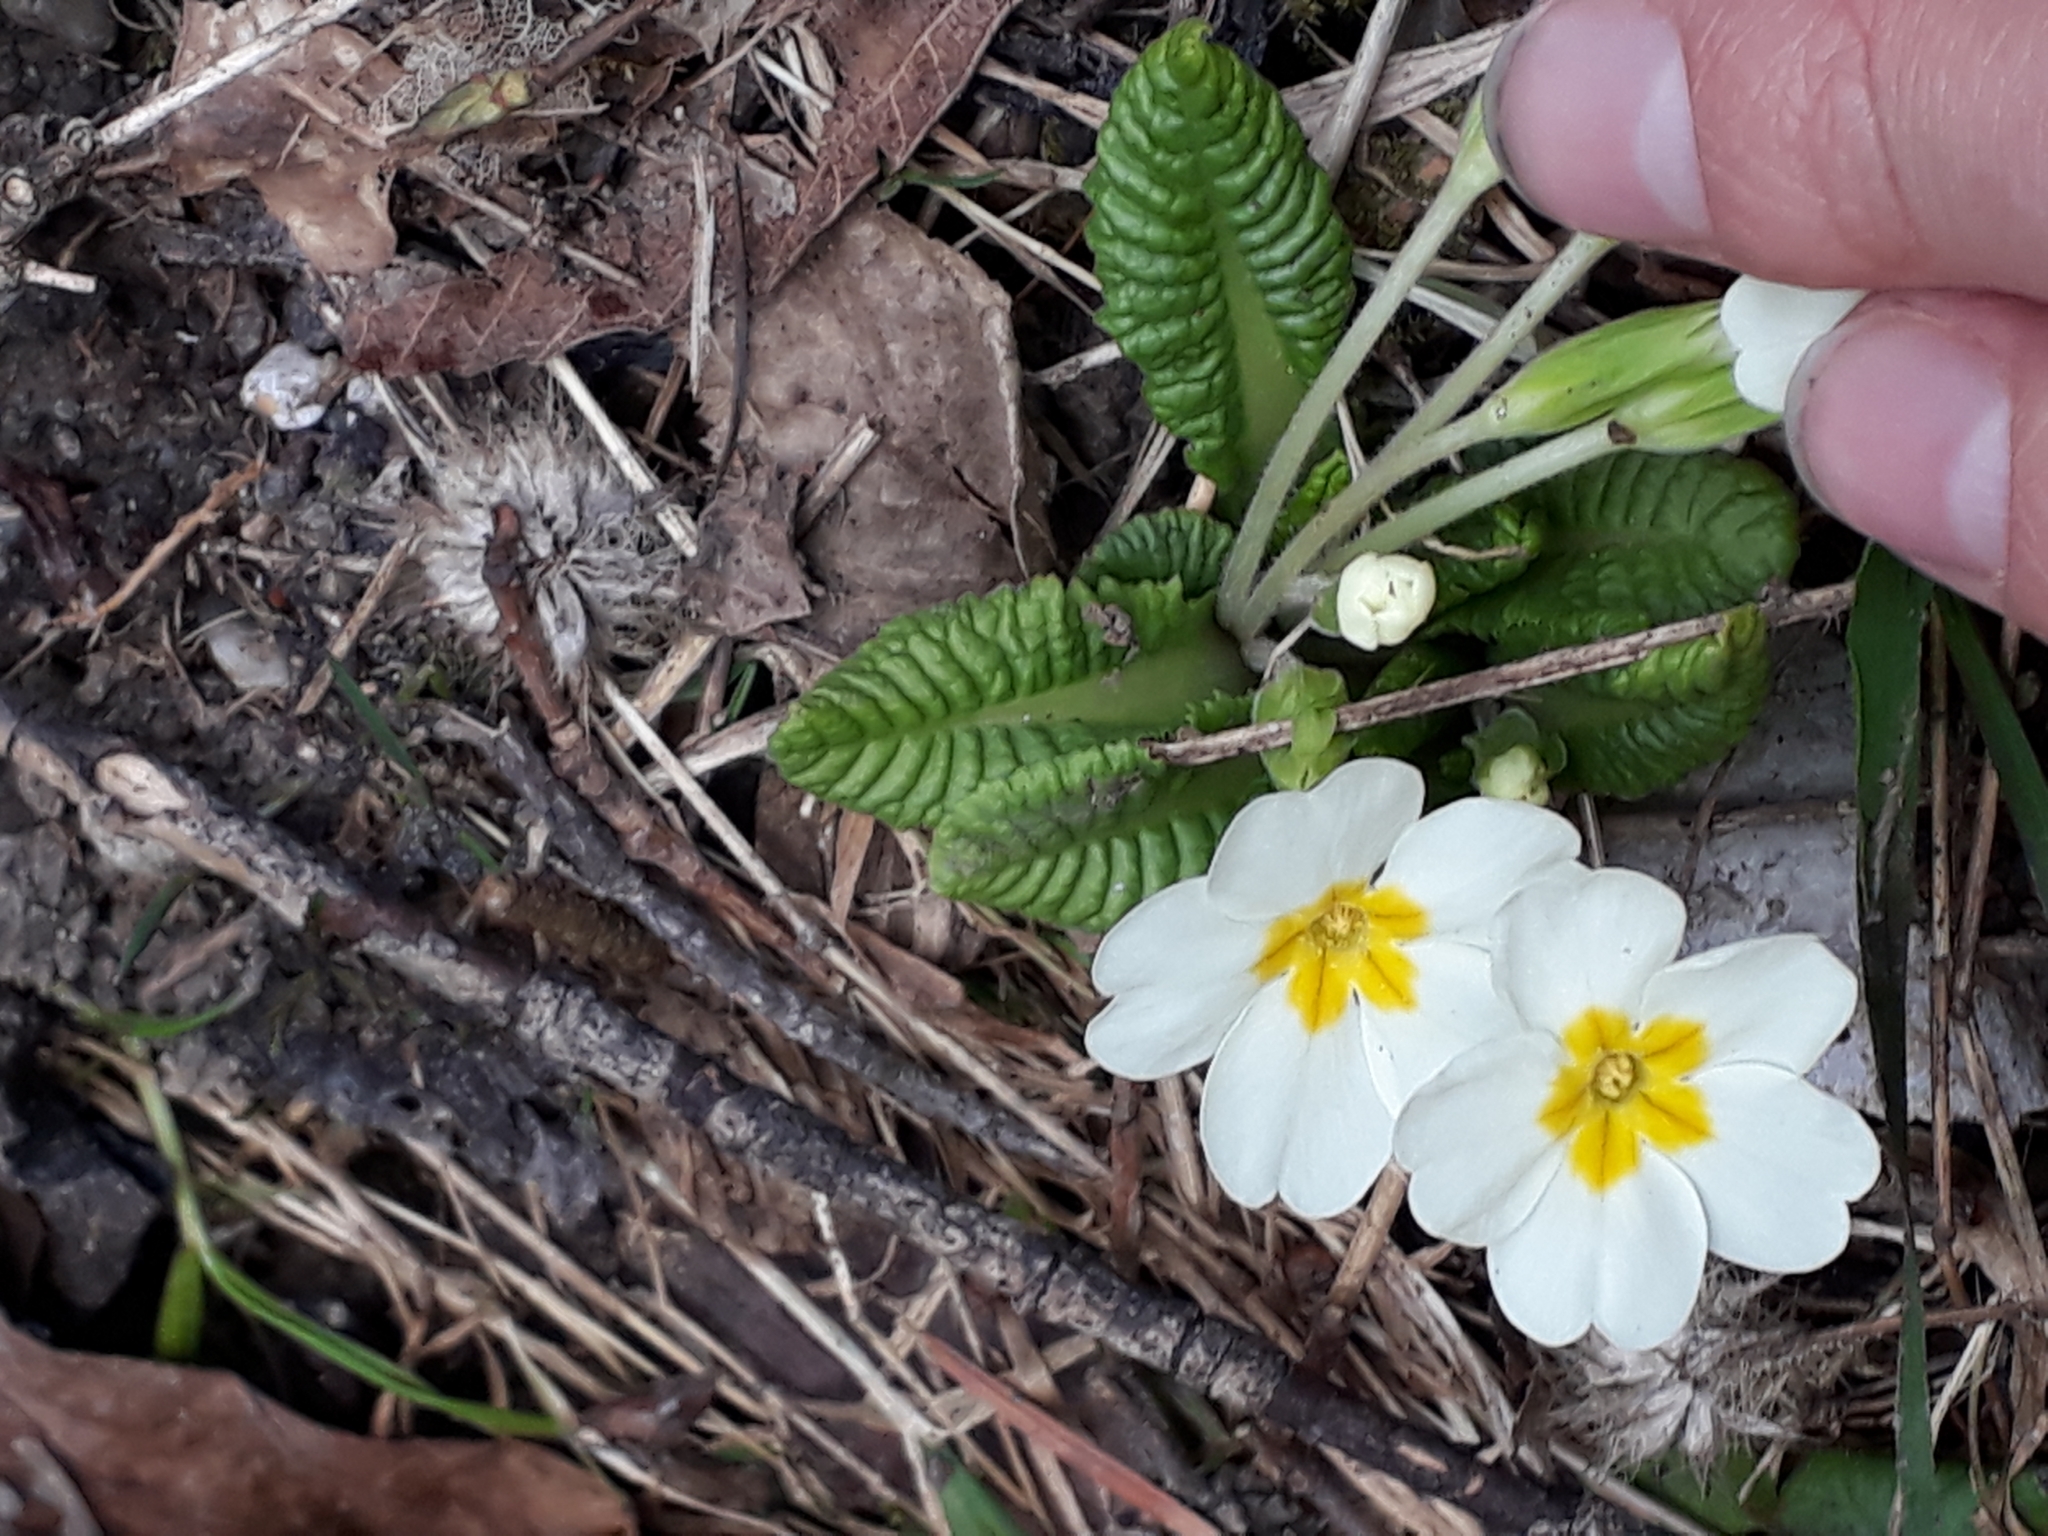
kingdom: Plantae
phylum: Tracheophyta
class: Magnoliopsida
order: Ericales
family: Primulaceae
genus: Primula
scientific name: Primula vulgaris
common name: Primrose
